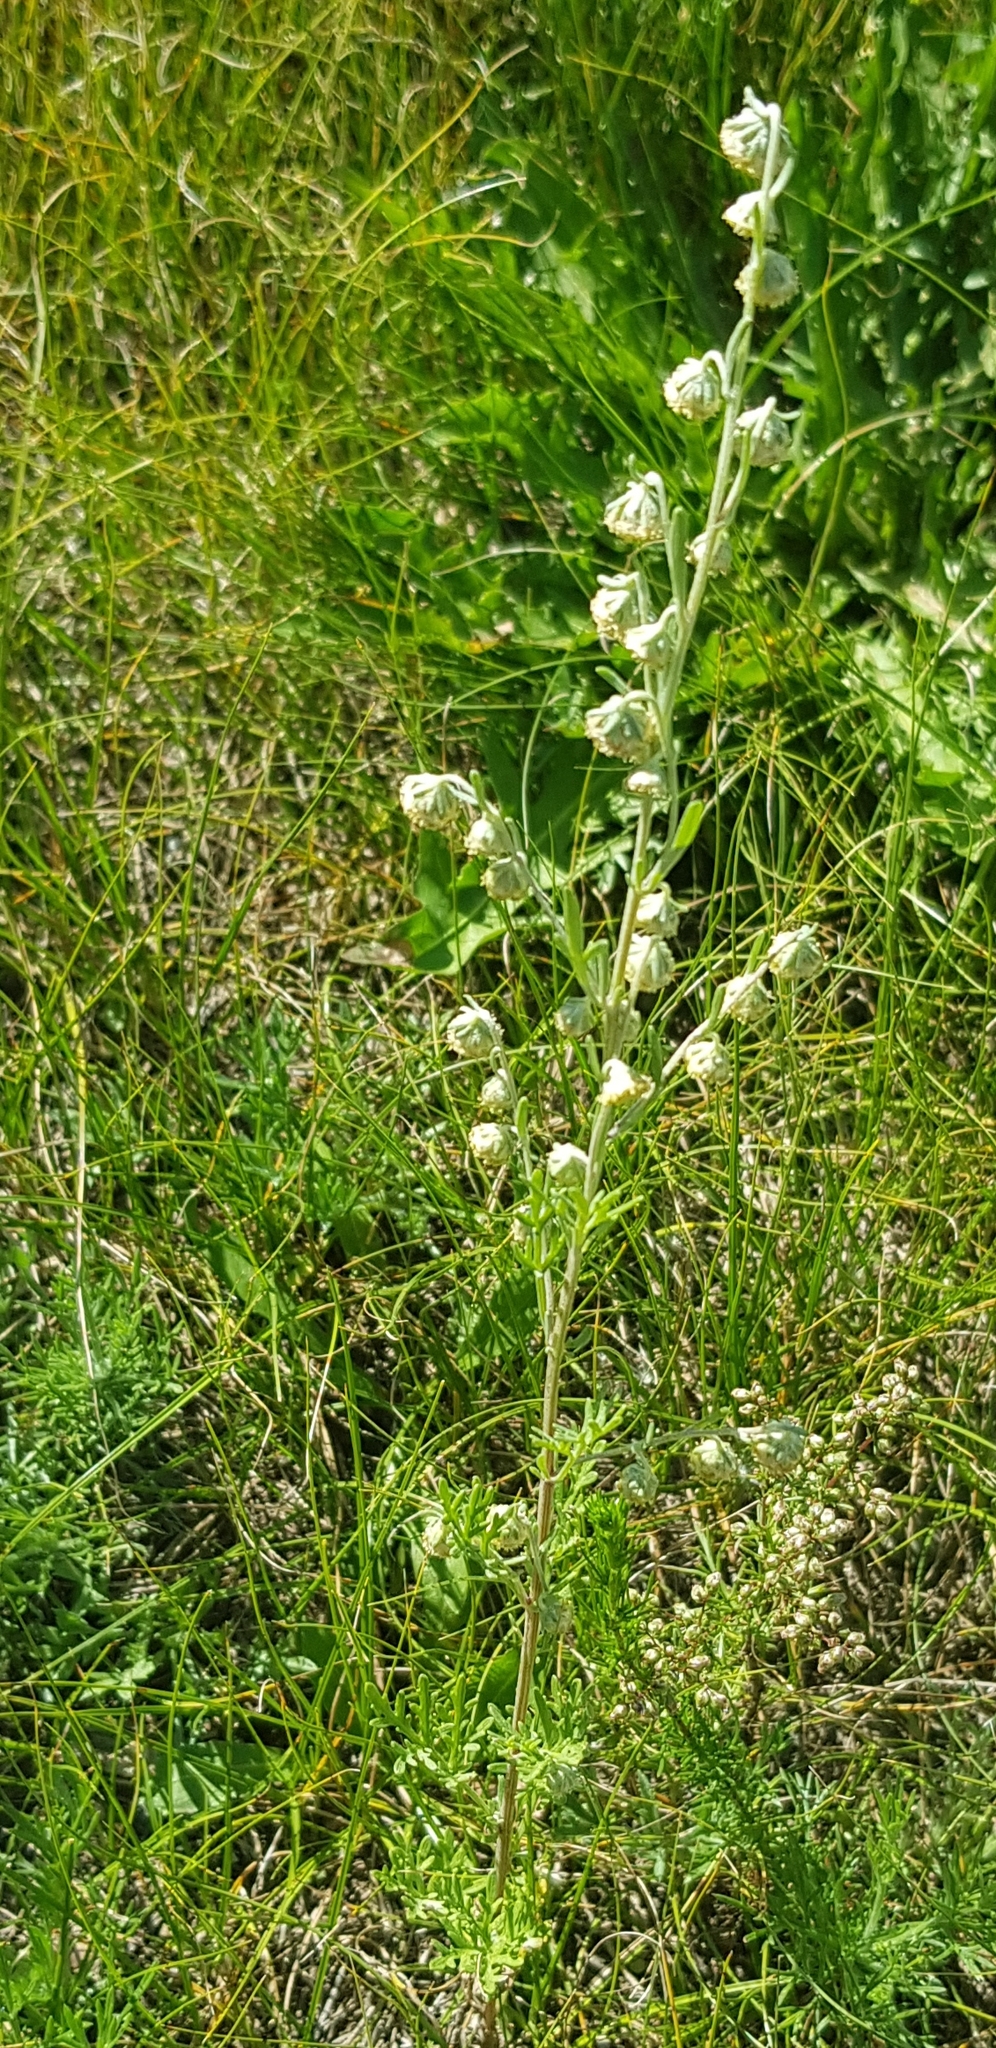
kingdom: Plantae
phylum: Tracheophyta
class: Magnoliopsida
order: Asterales
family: Asteraceae
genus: Artemisia
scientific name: Artemisia sieversiana
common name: Sieversian wormwood
